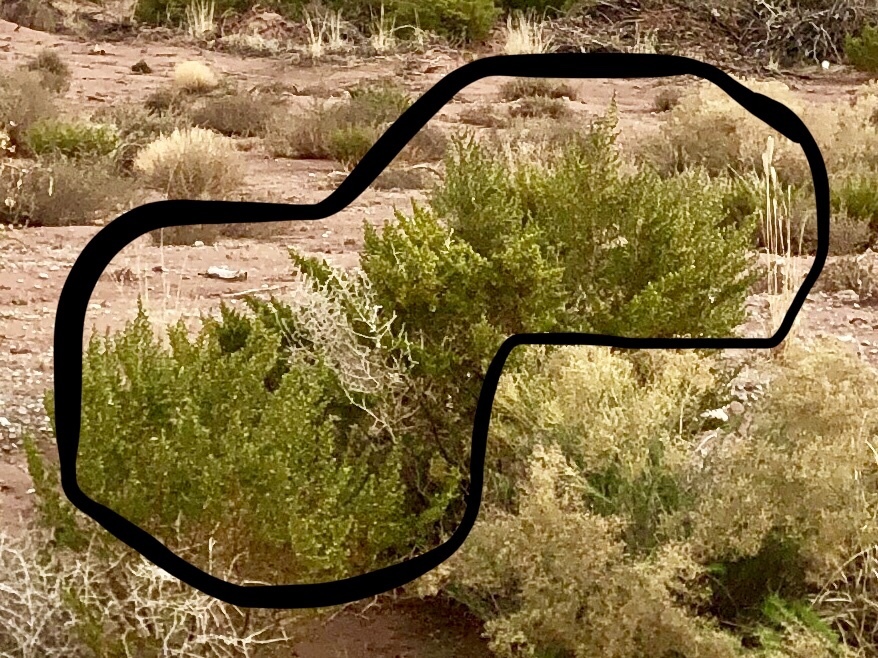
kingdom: Plantae
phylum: Tracheophyta
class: Magnoliopsida
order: Zygophyllales
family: Zygophyllaceae
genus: Larrea
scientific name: Larrea tridentata
